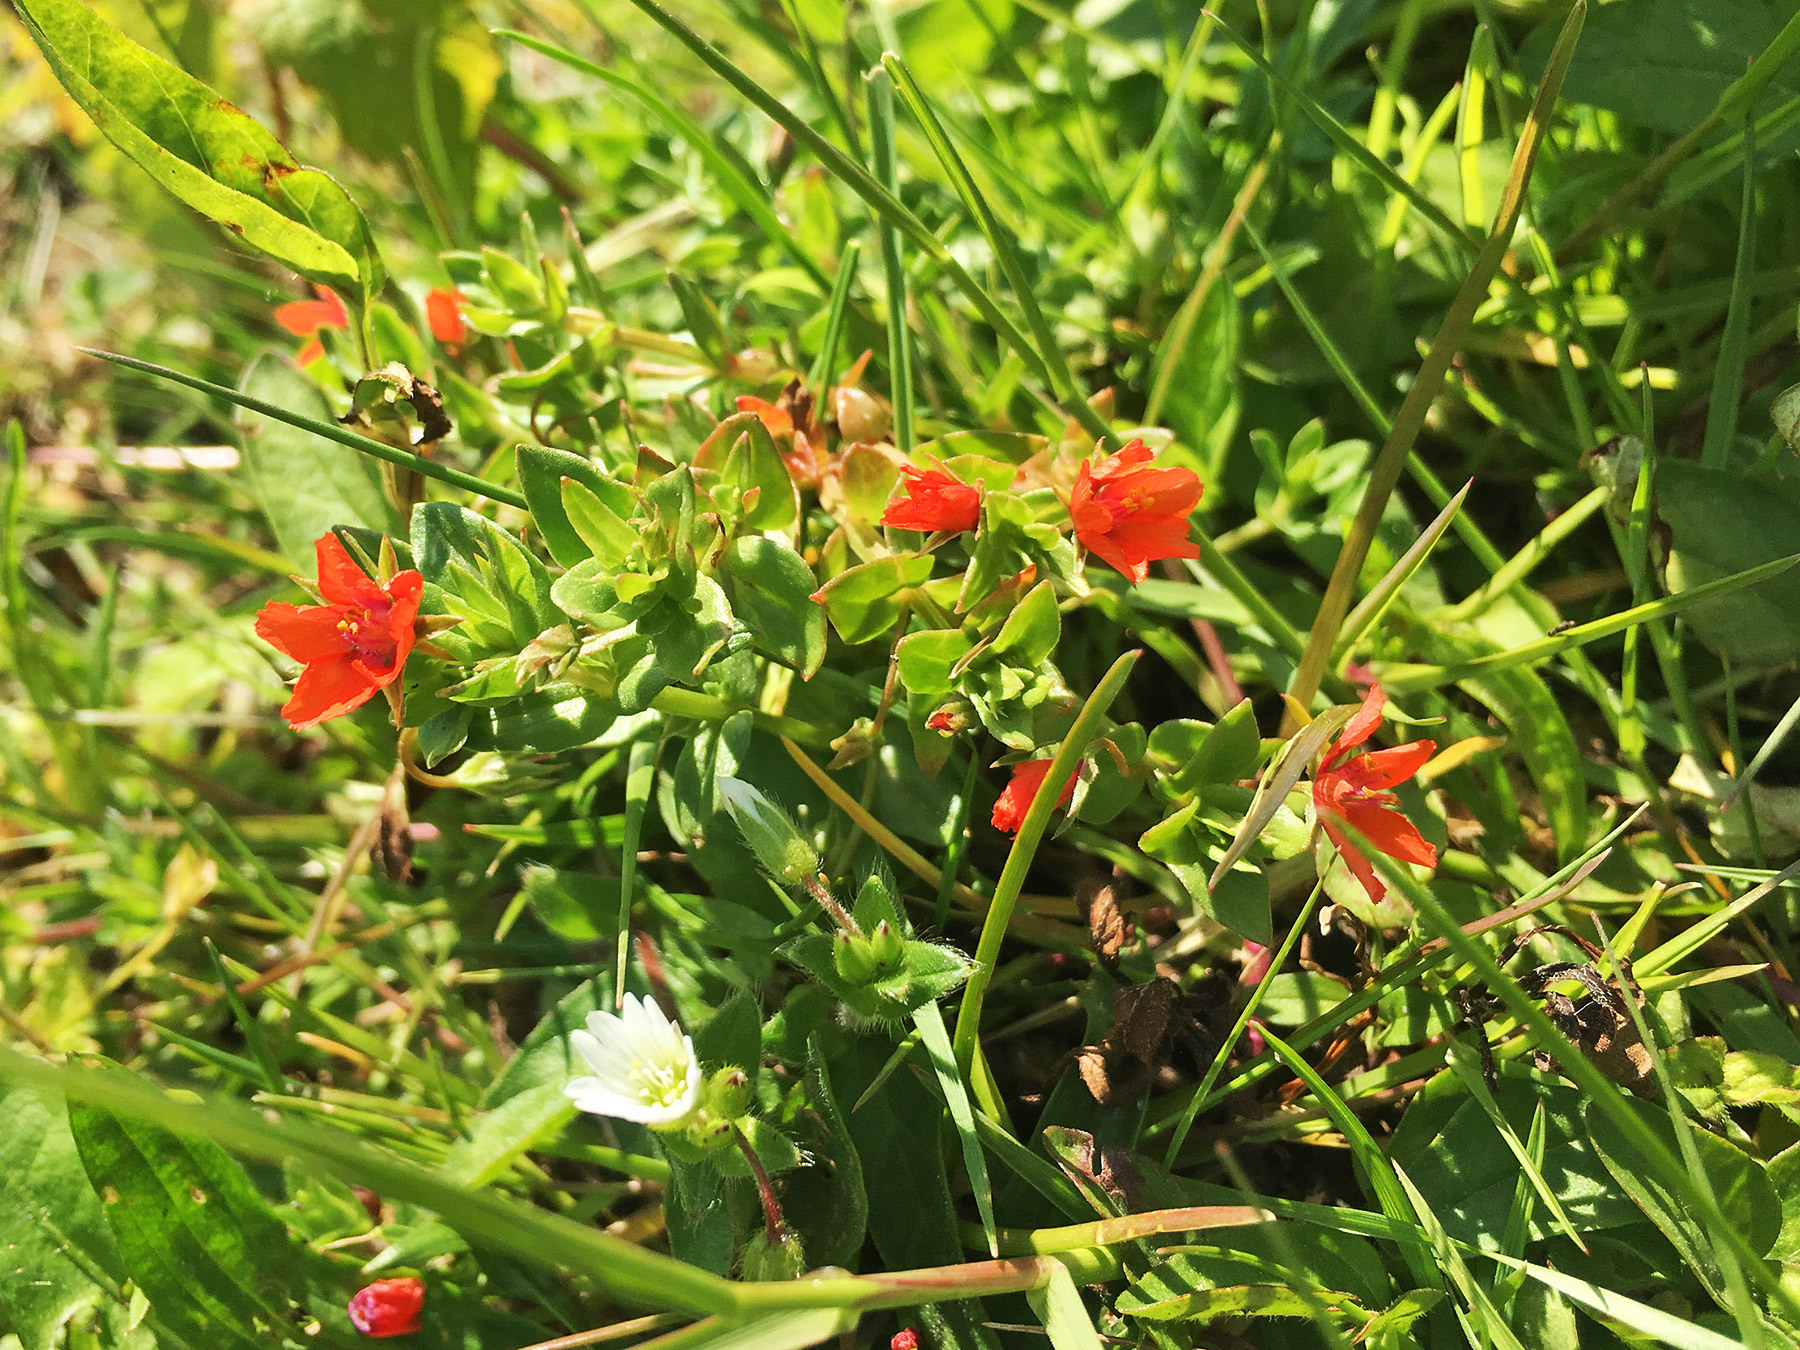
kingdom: Plantae
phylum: Tracheophyta
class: Magnoliopsida
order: Ericales
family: Primulaceae
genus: Lysimachia
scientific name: Lysimachia arvensis
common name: Scarlet pimpernel
